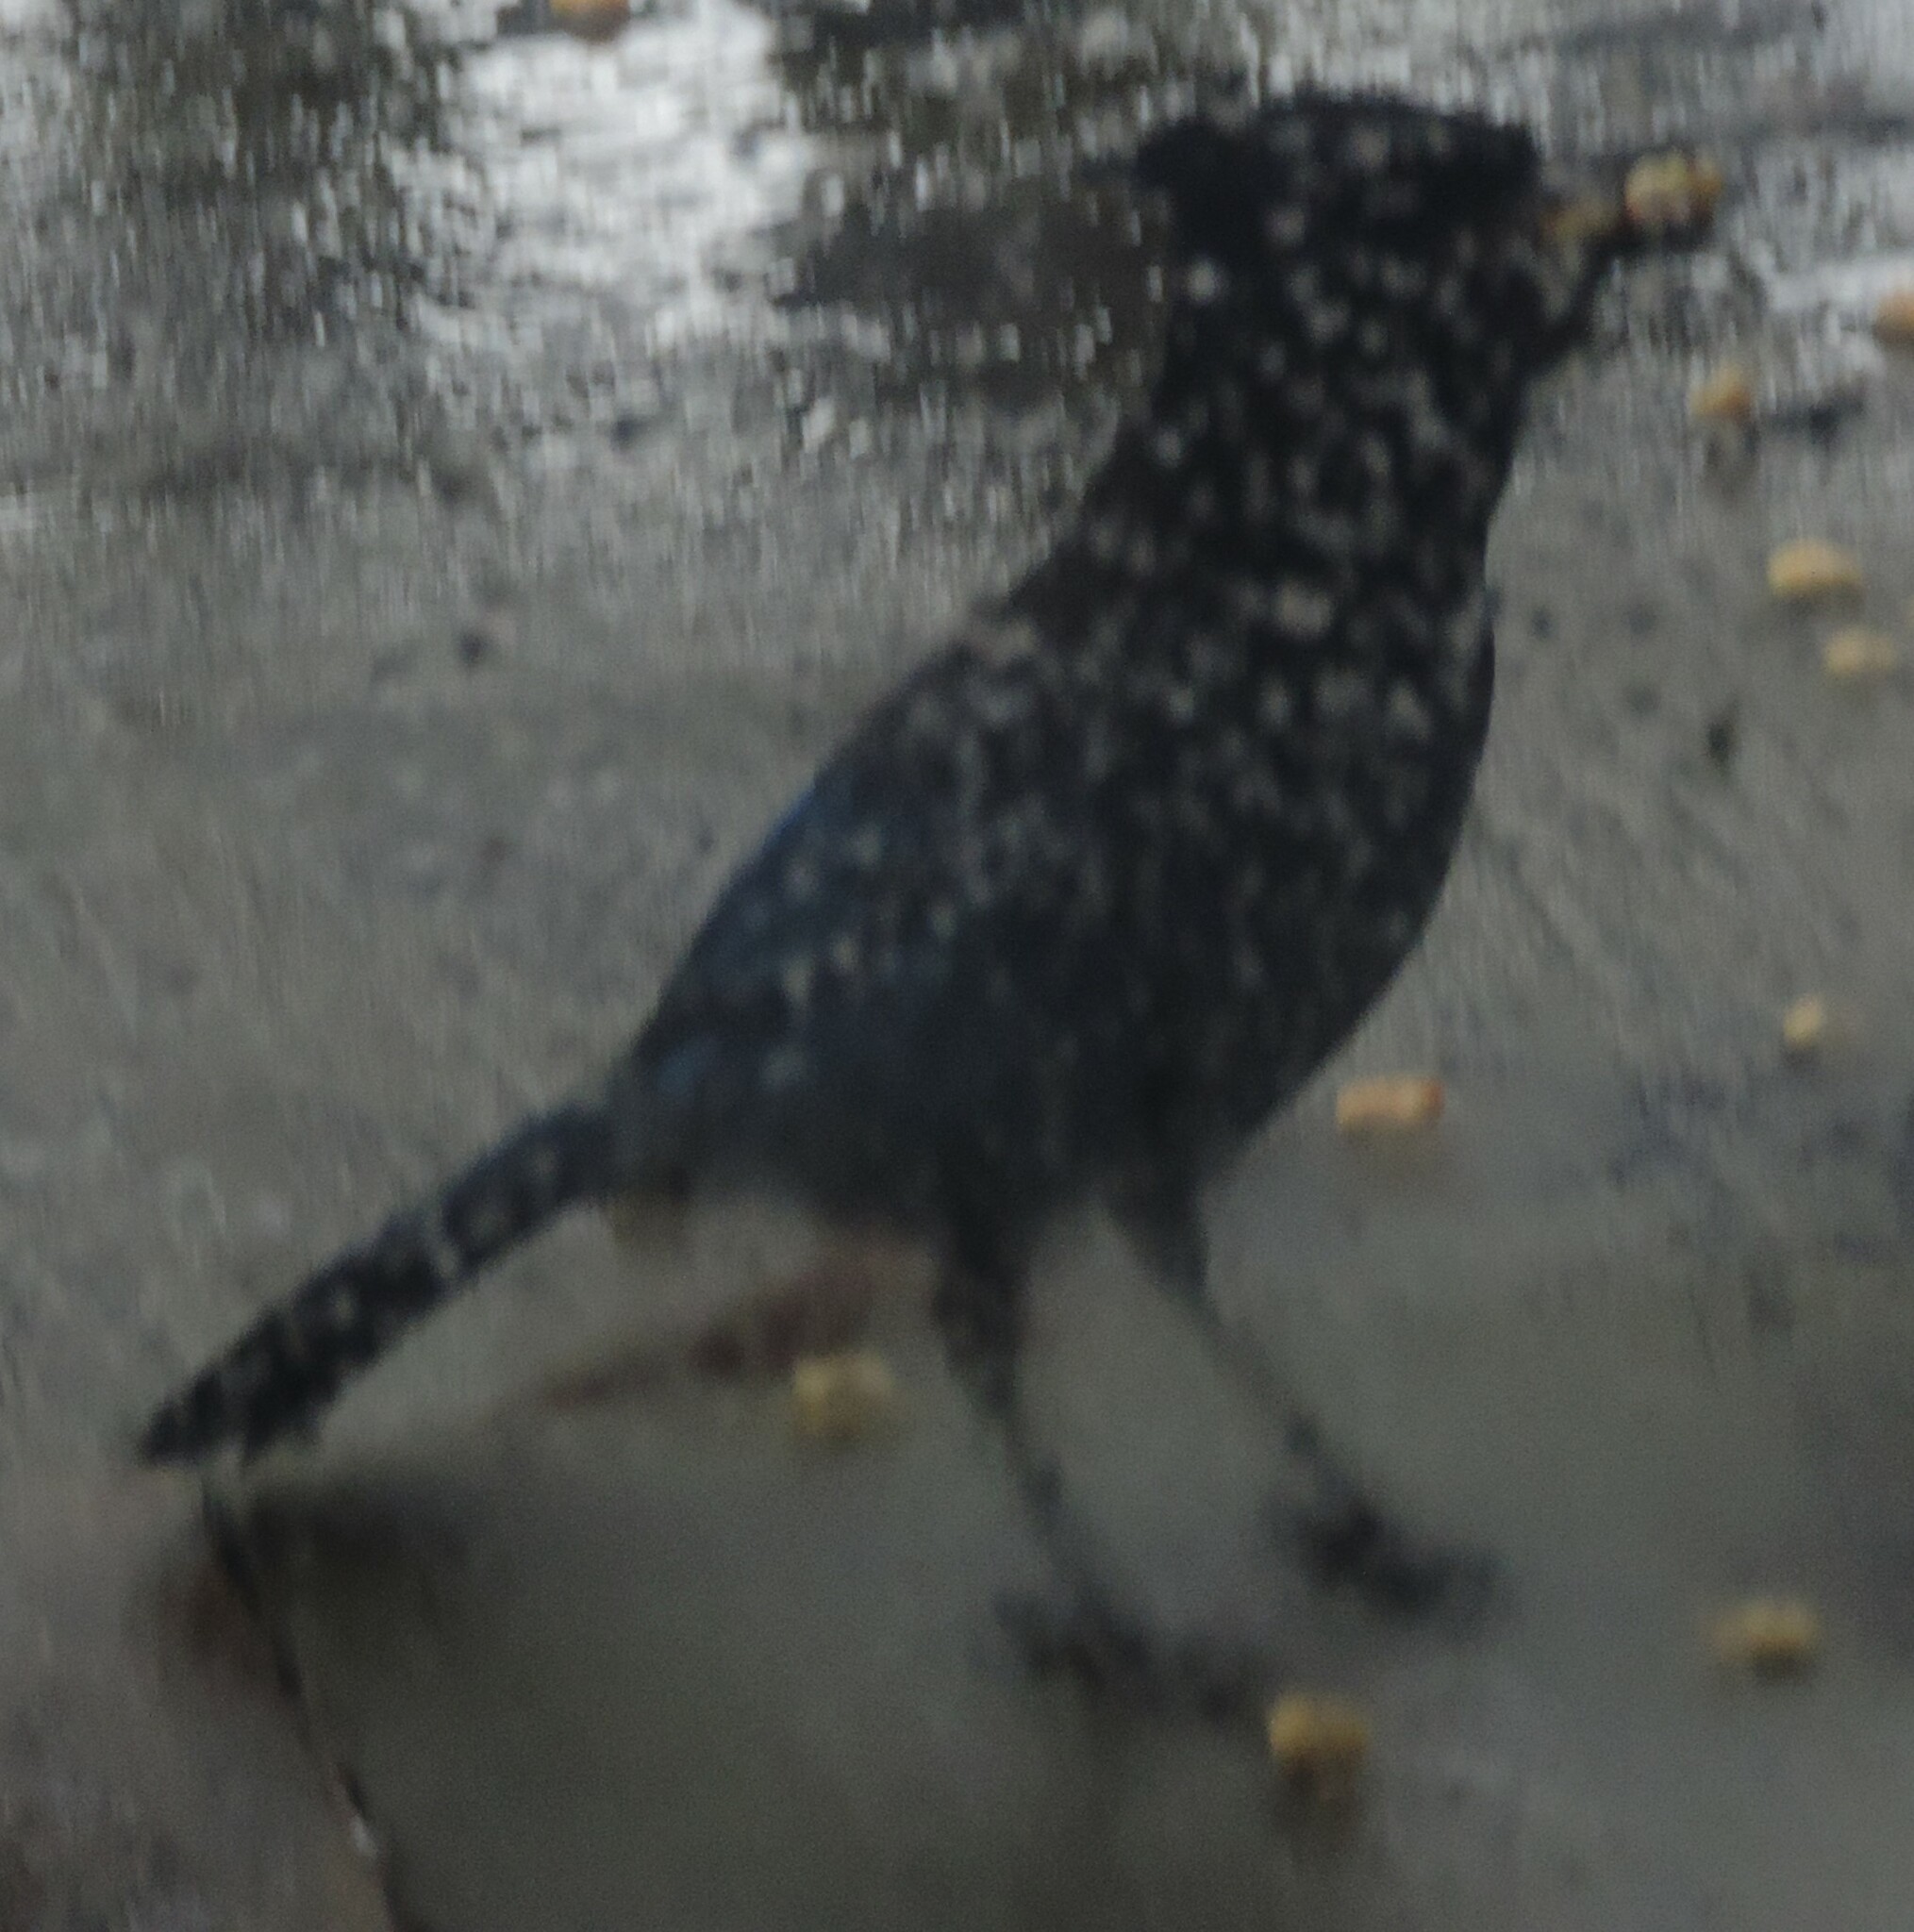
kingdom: Animalia
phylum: Chordata
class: Aves
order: Passeriformes
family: Corvidae
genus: Cyanocitta
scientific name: Cyanocitta stelleri
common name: Steller's jay
